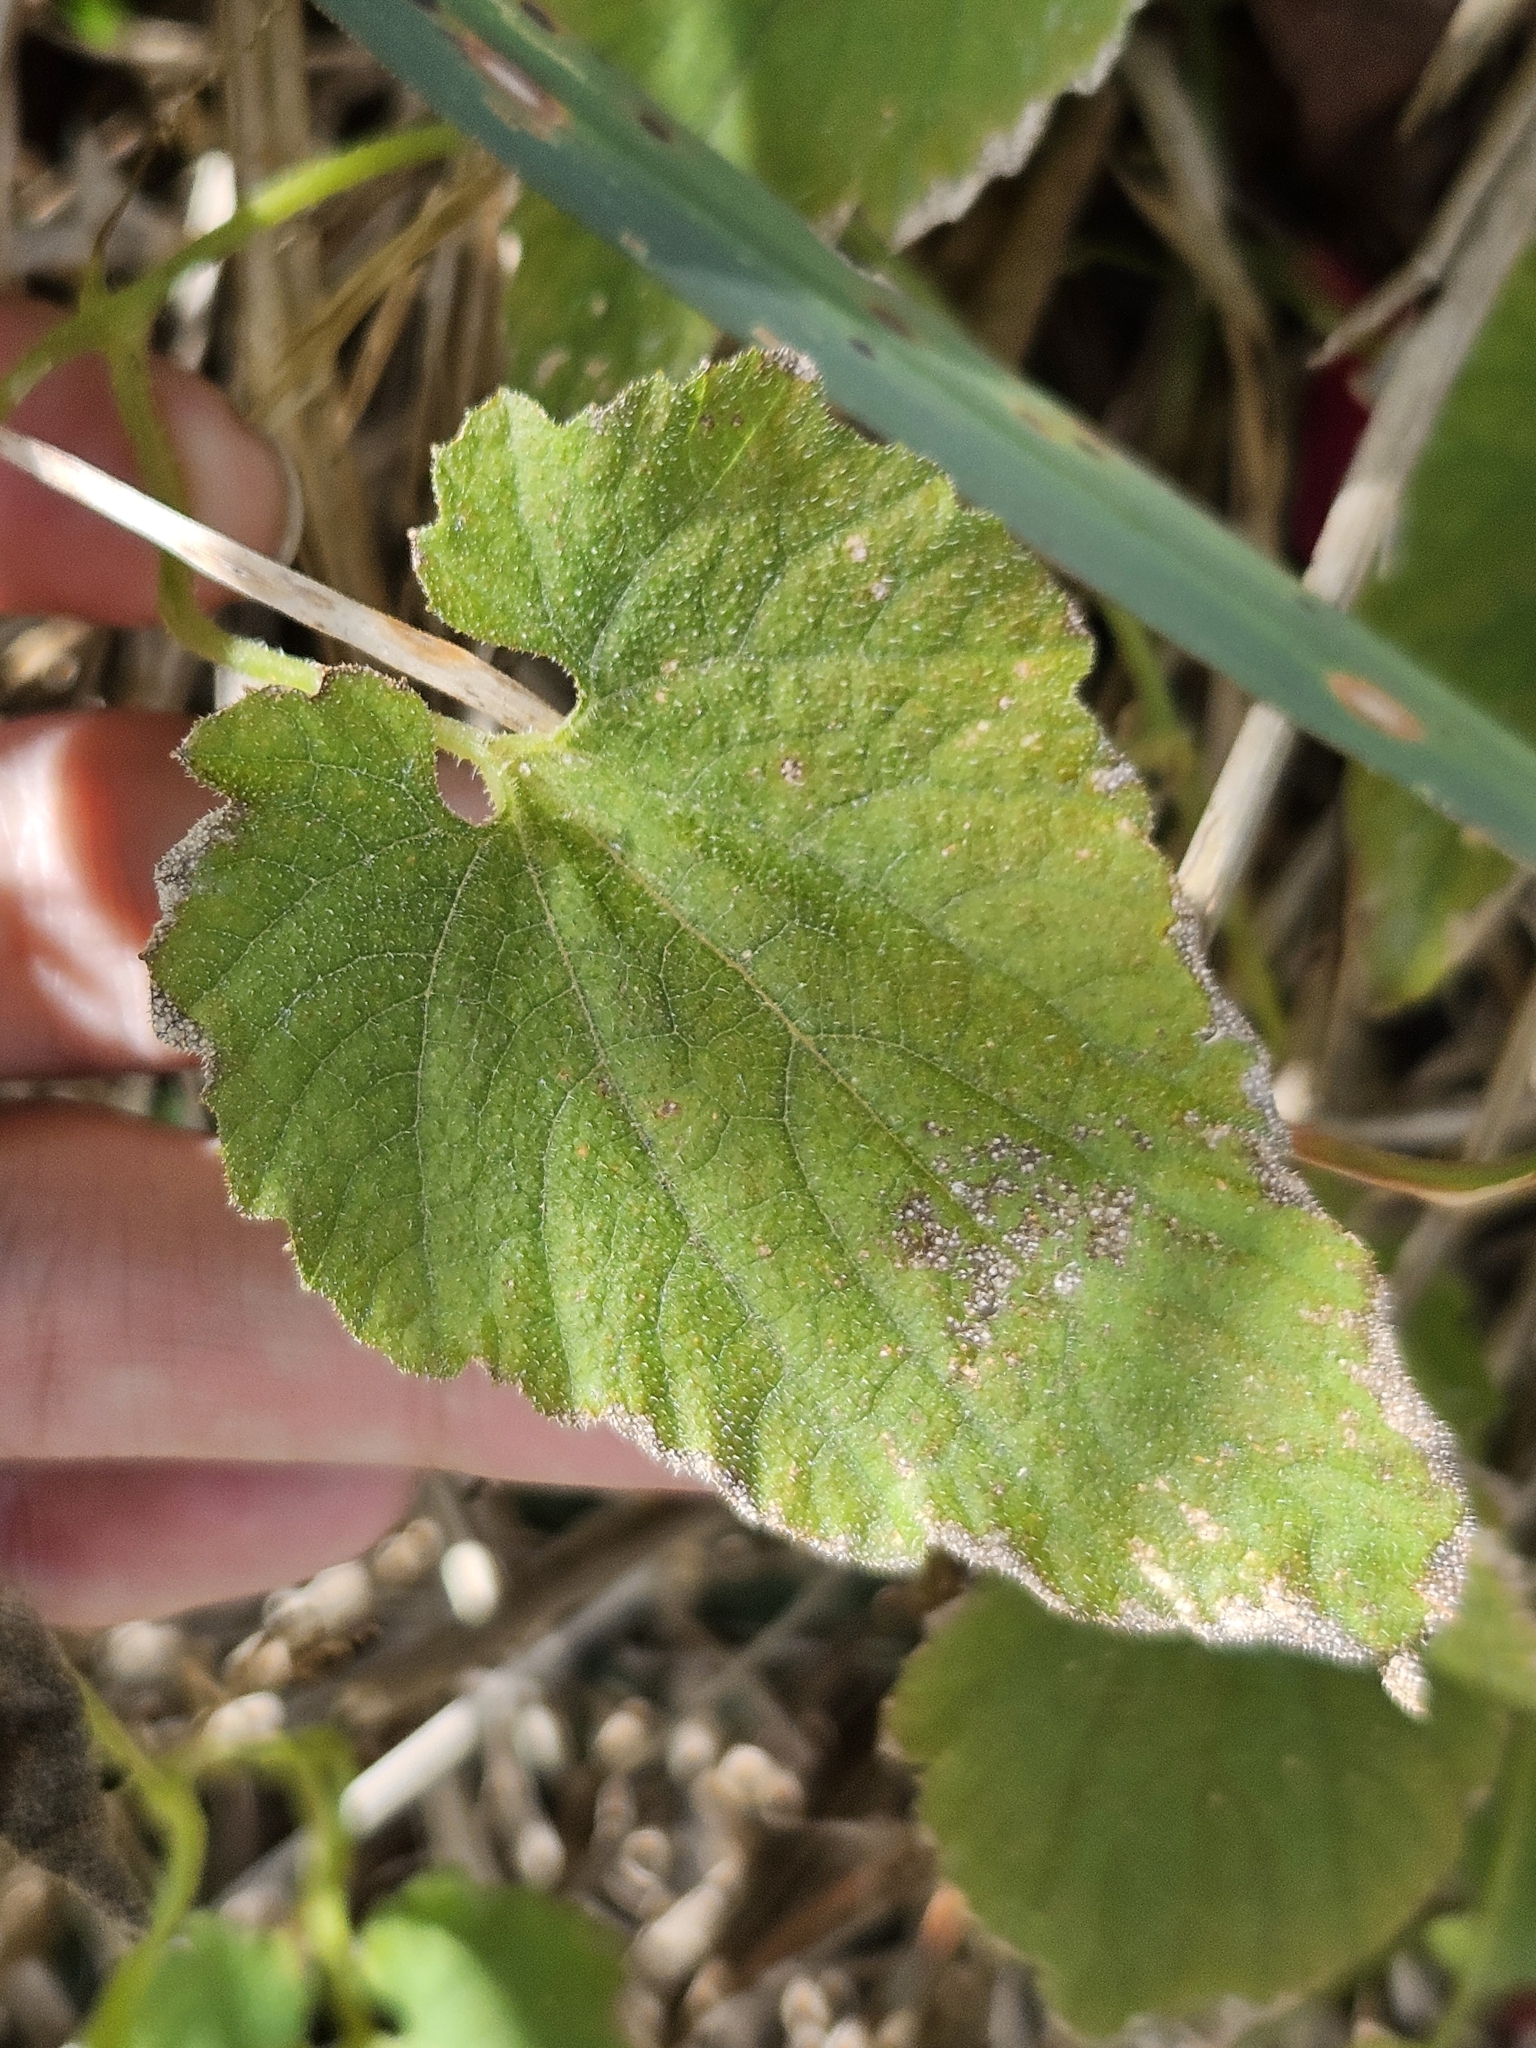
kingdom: Plantae
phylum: Tracheophyta
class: Magnoliopsida
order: Cucurbitales
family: Cucurbitaceae
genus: Thladiantha
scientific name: Thladiantha nudiflora
